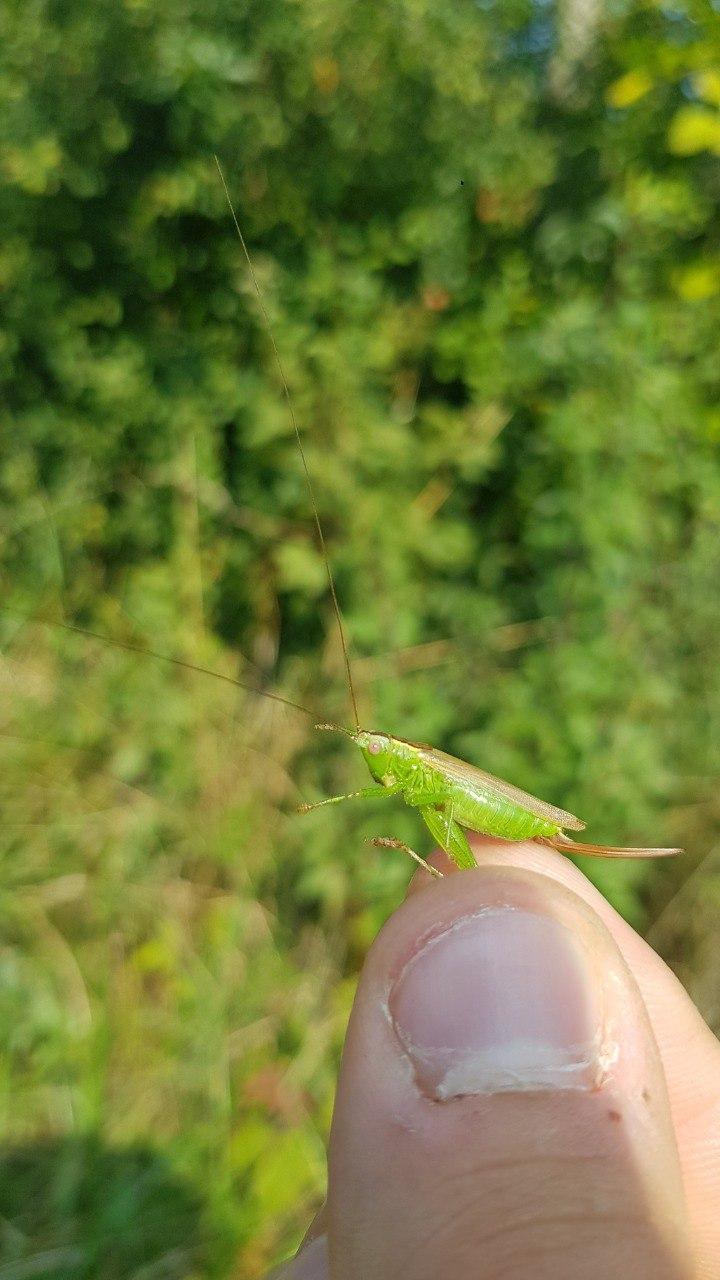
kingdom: Animalia
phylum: Arthropoda
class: Insecta
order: Orthoptera
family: Tettigoniidae
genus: Conocephalus
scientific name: Conocephalus fuscus
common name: Long-winged conehead
